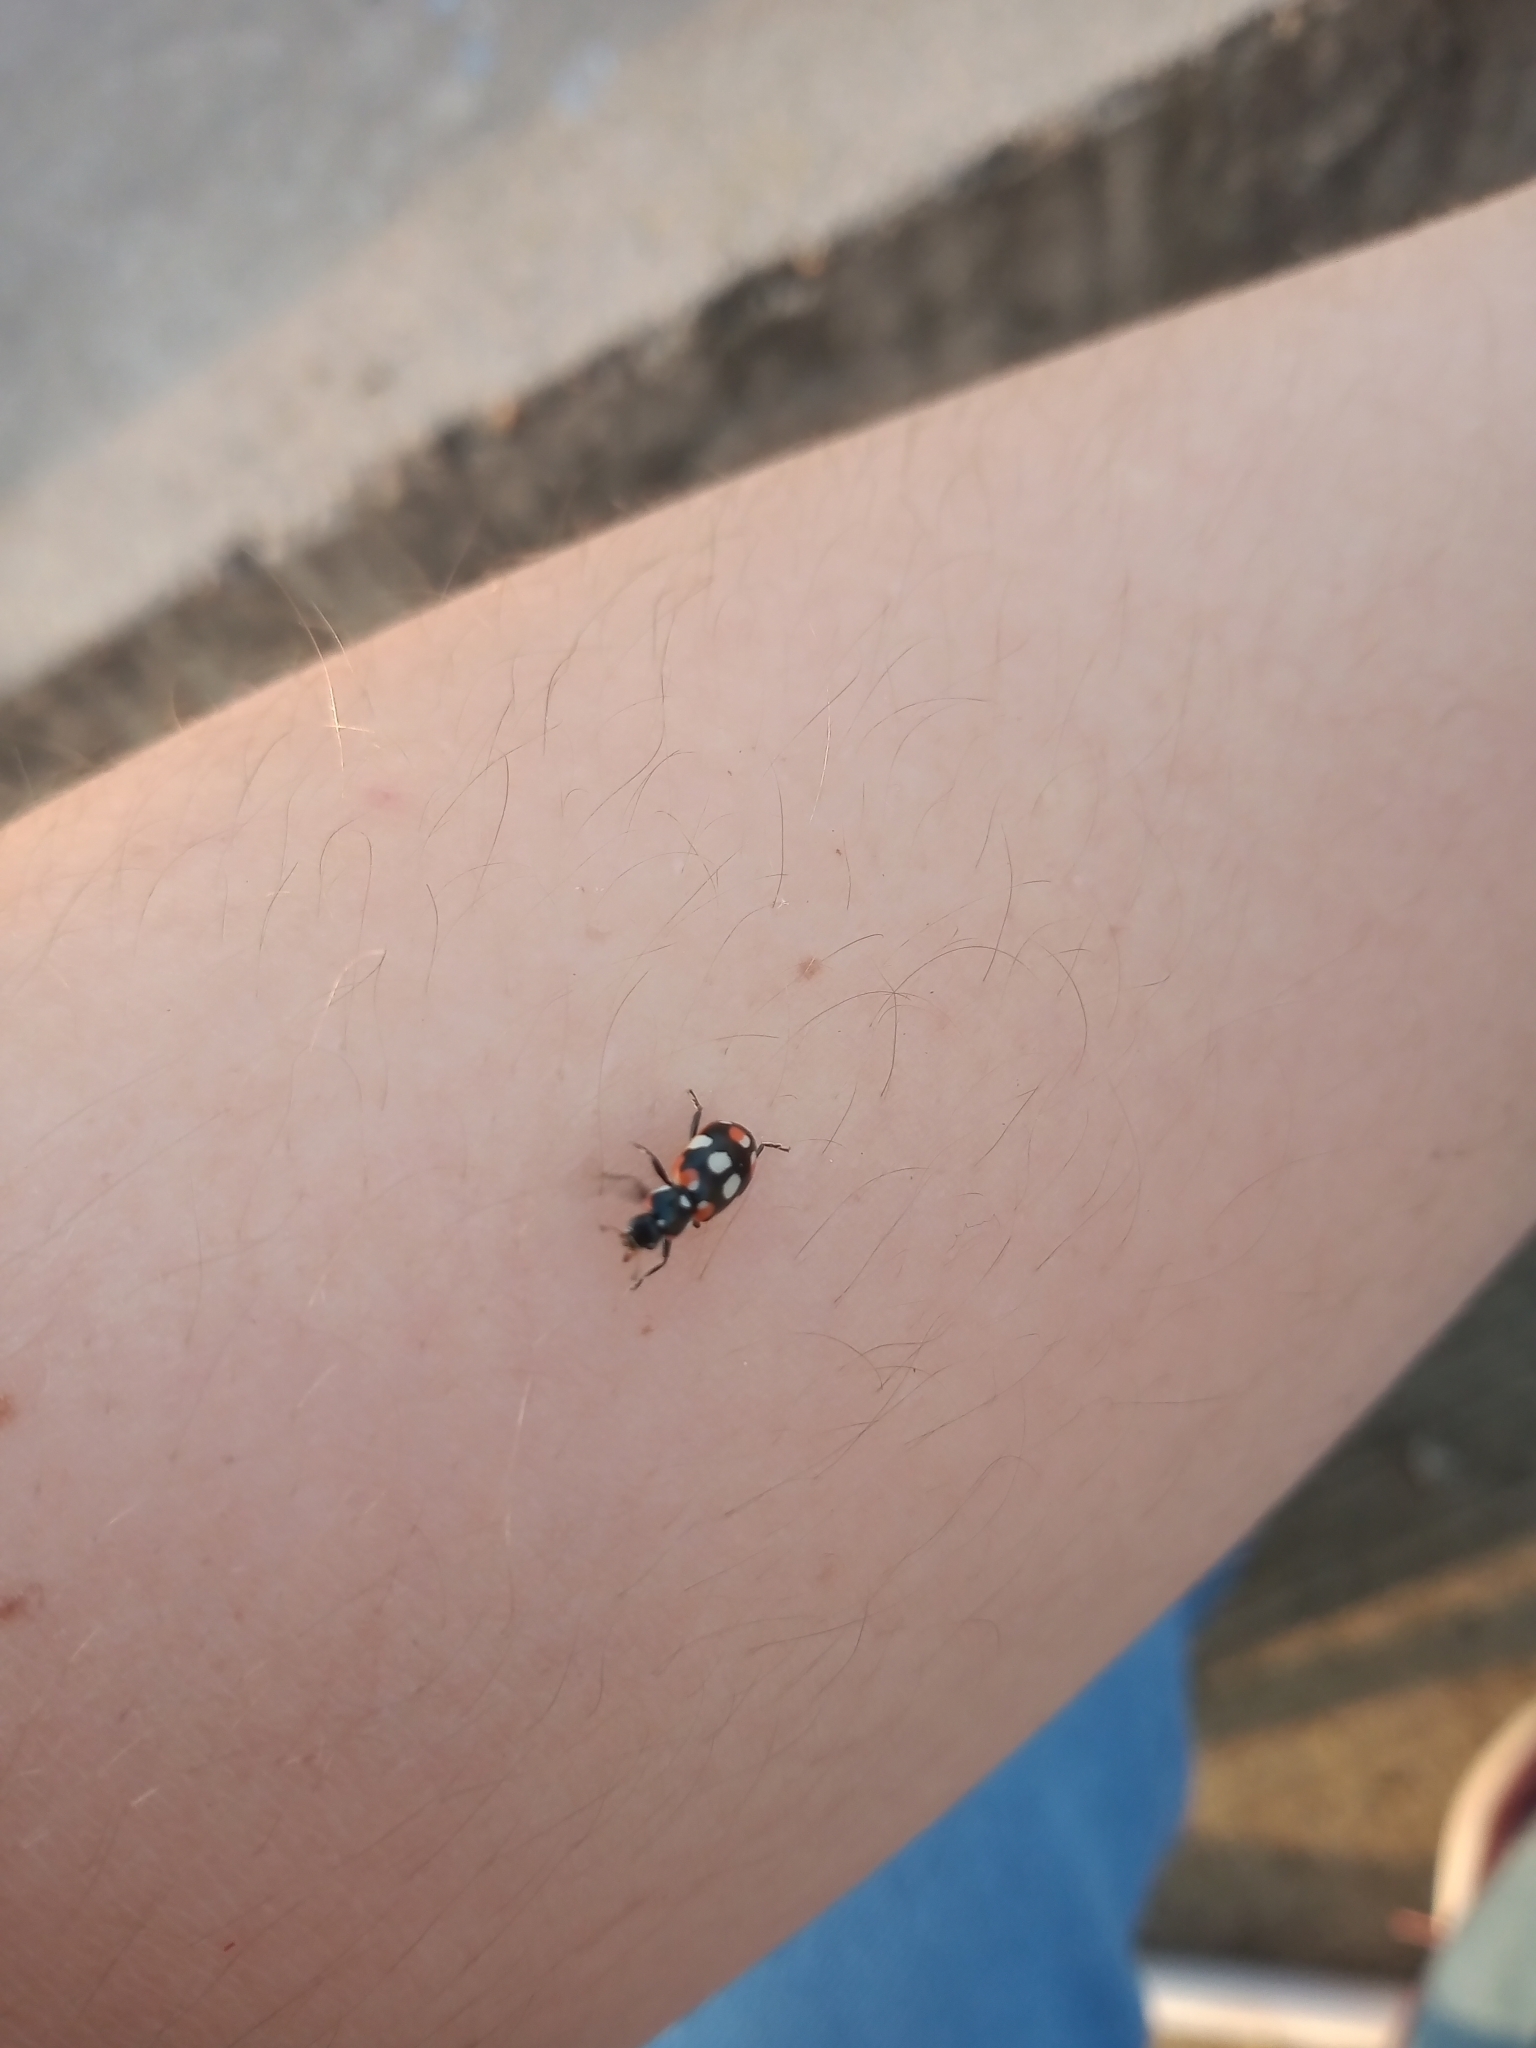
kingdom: Animalia
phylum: Arthropoda
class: Insecta
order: Coleoptera
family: Coccinellidae
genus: Eriopis
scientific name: Eriopis connexa
